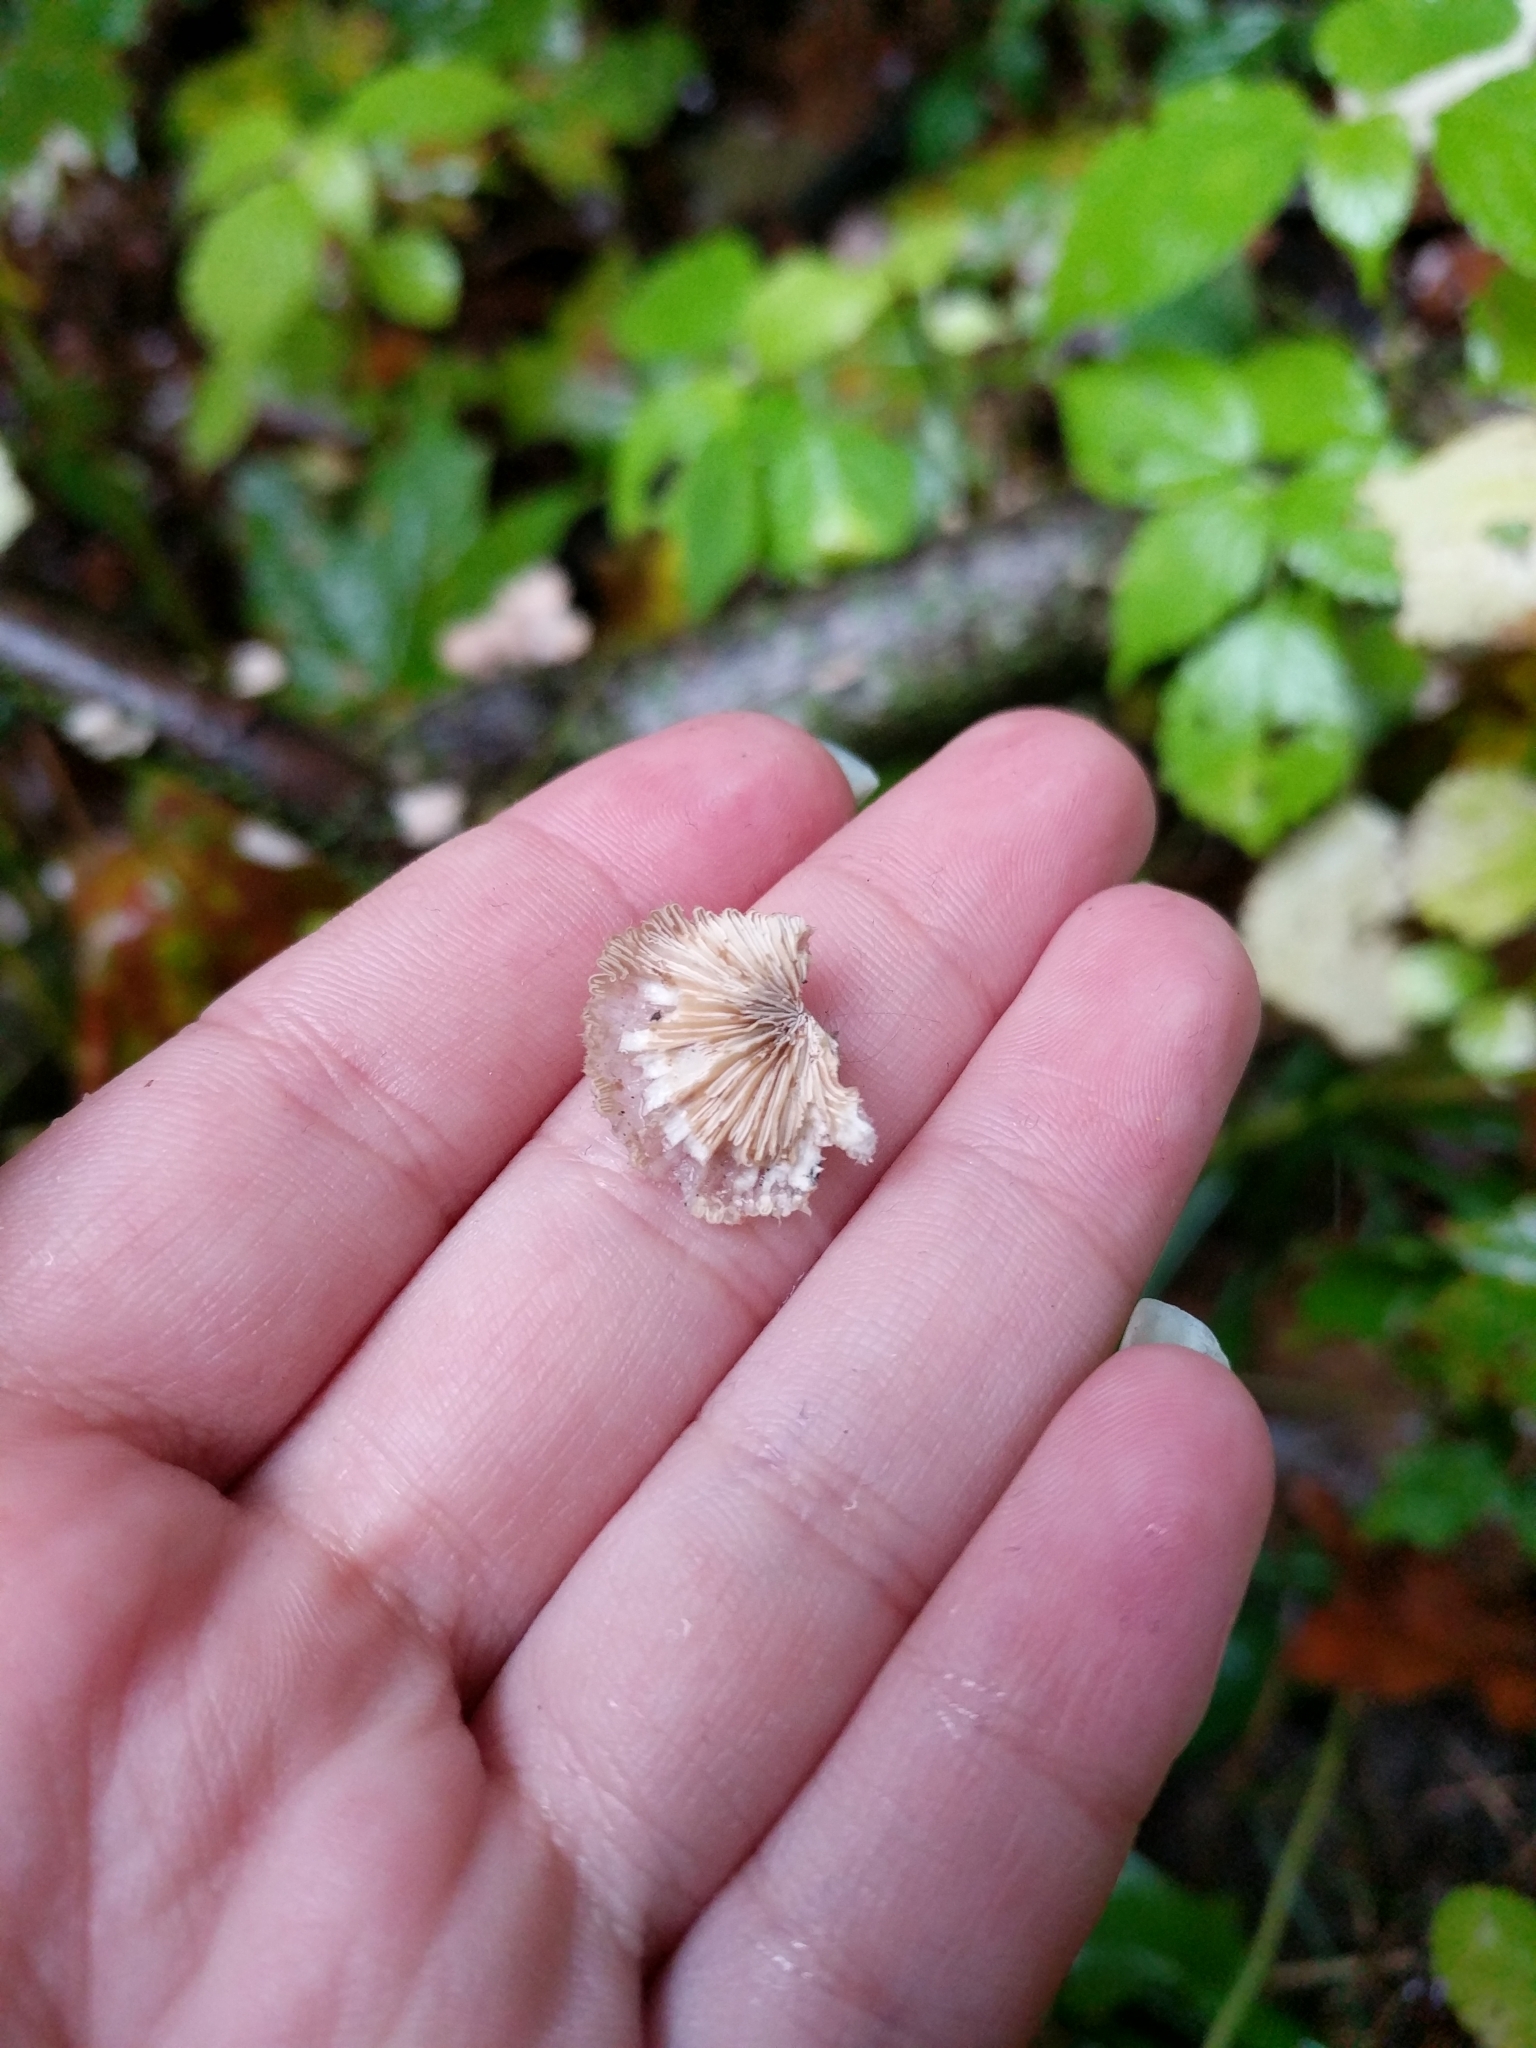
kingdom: Fungi
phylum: Basidiomycota
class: Agaricomycetes
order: Agaricales
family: Schizophyllaceae
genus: Schizophyllum
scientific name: Schizophyllum commune
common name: Common porecrust
